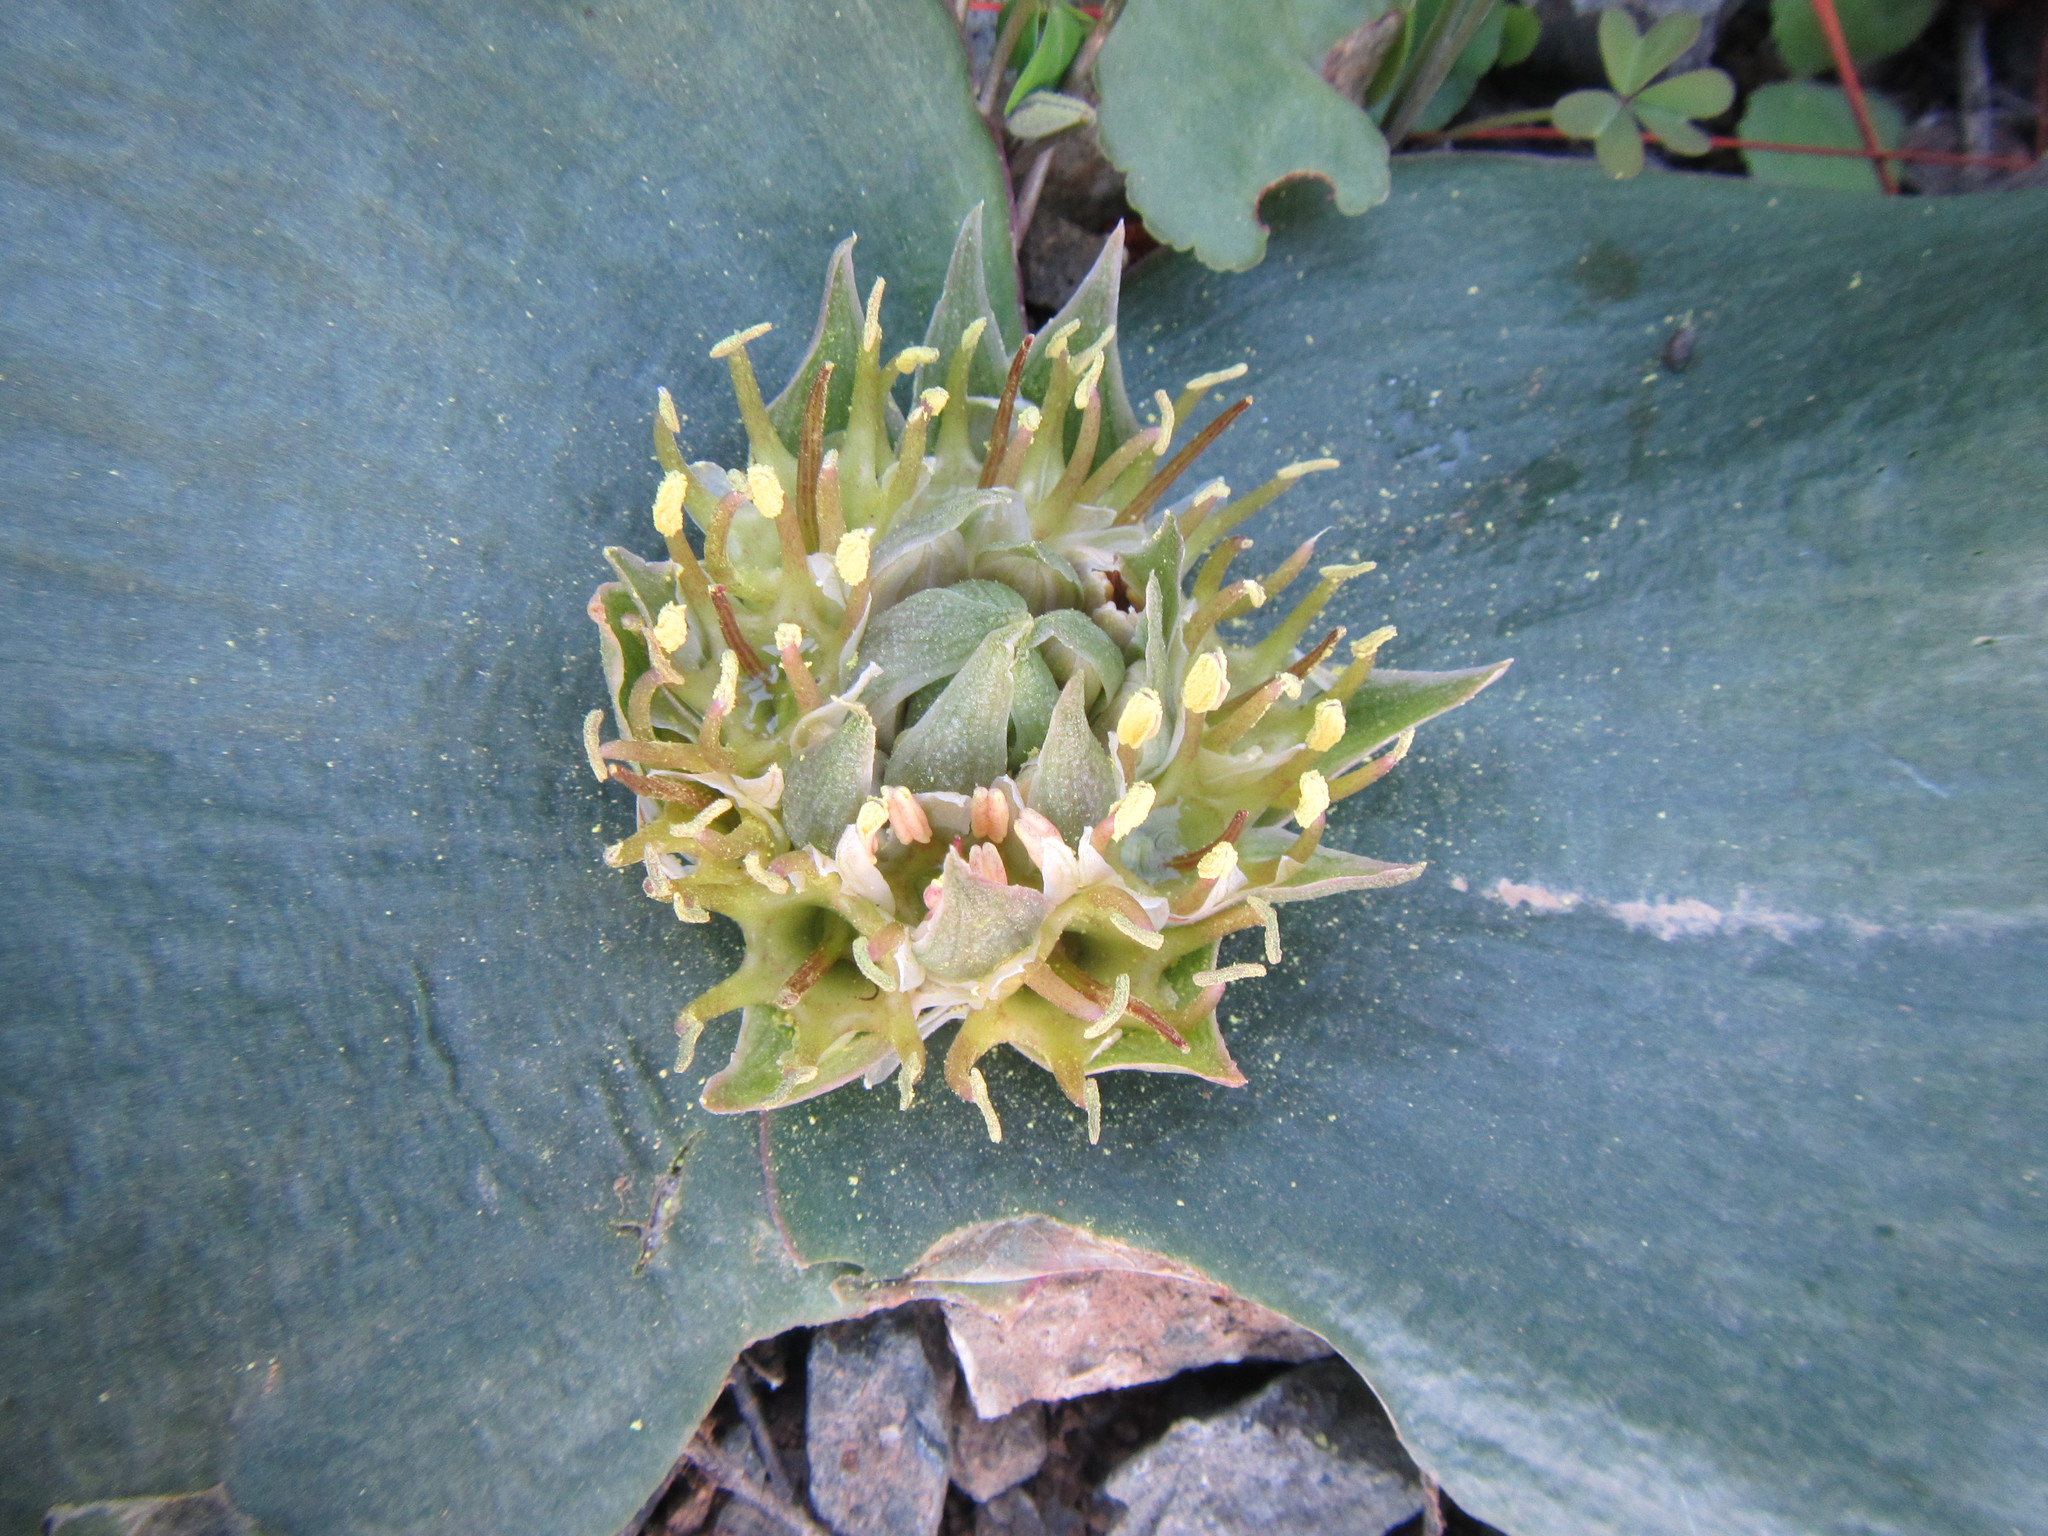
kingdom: Plantae
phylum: Tracheophyta
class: Liliopsida
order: Asparagales
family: Asparagaceae
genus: Massonia
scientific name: Massonia depressa
